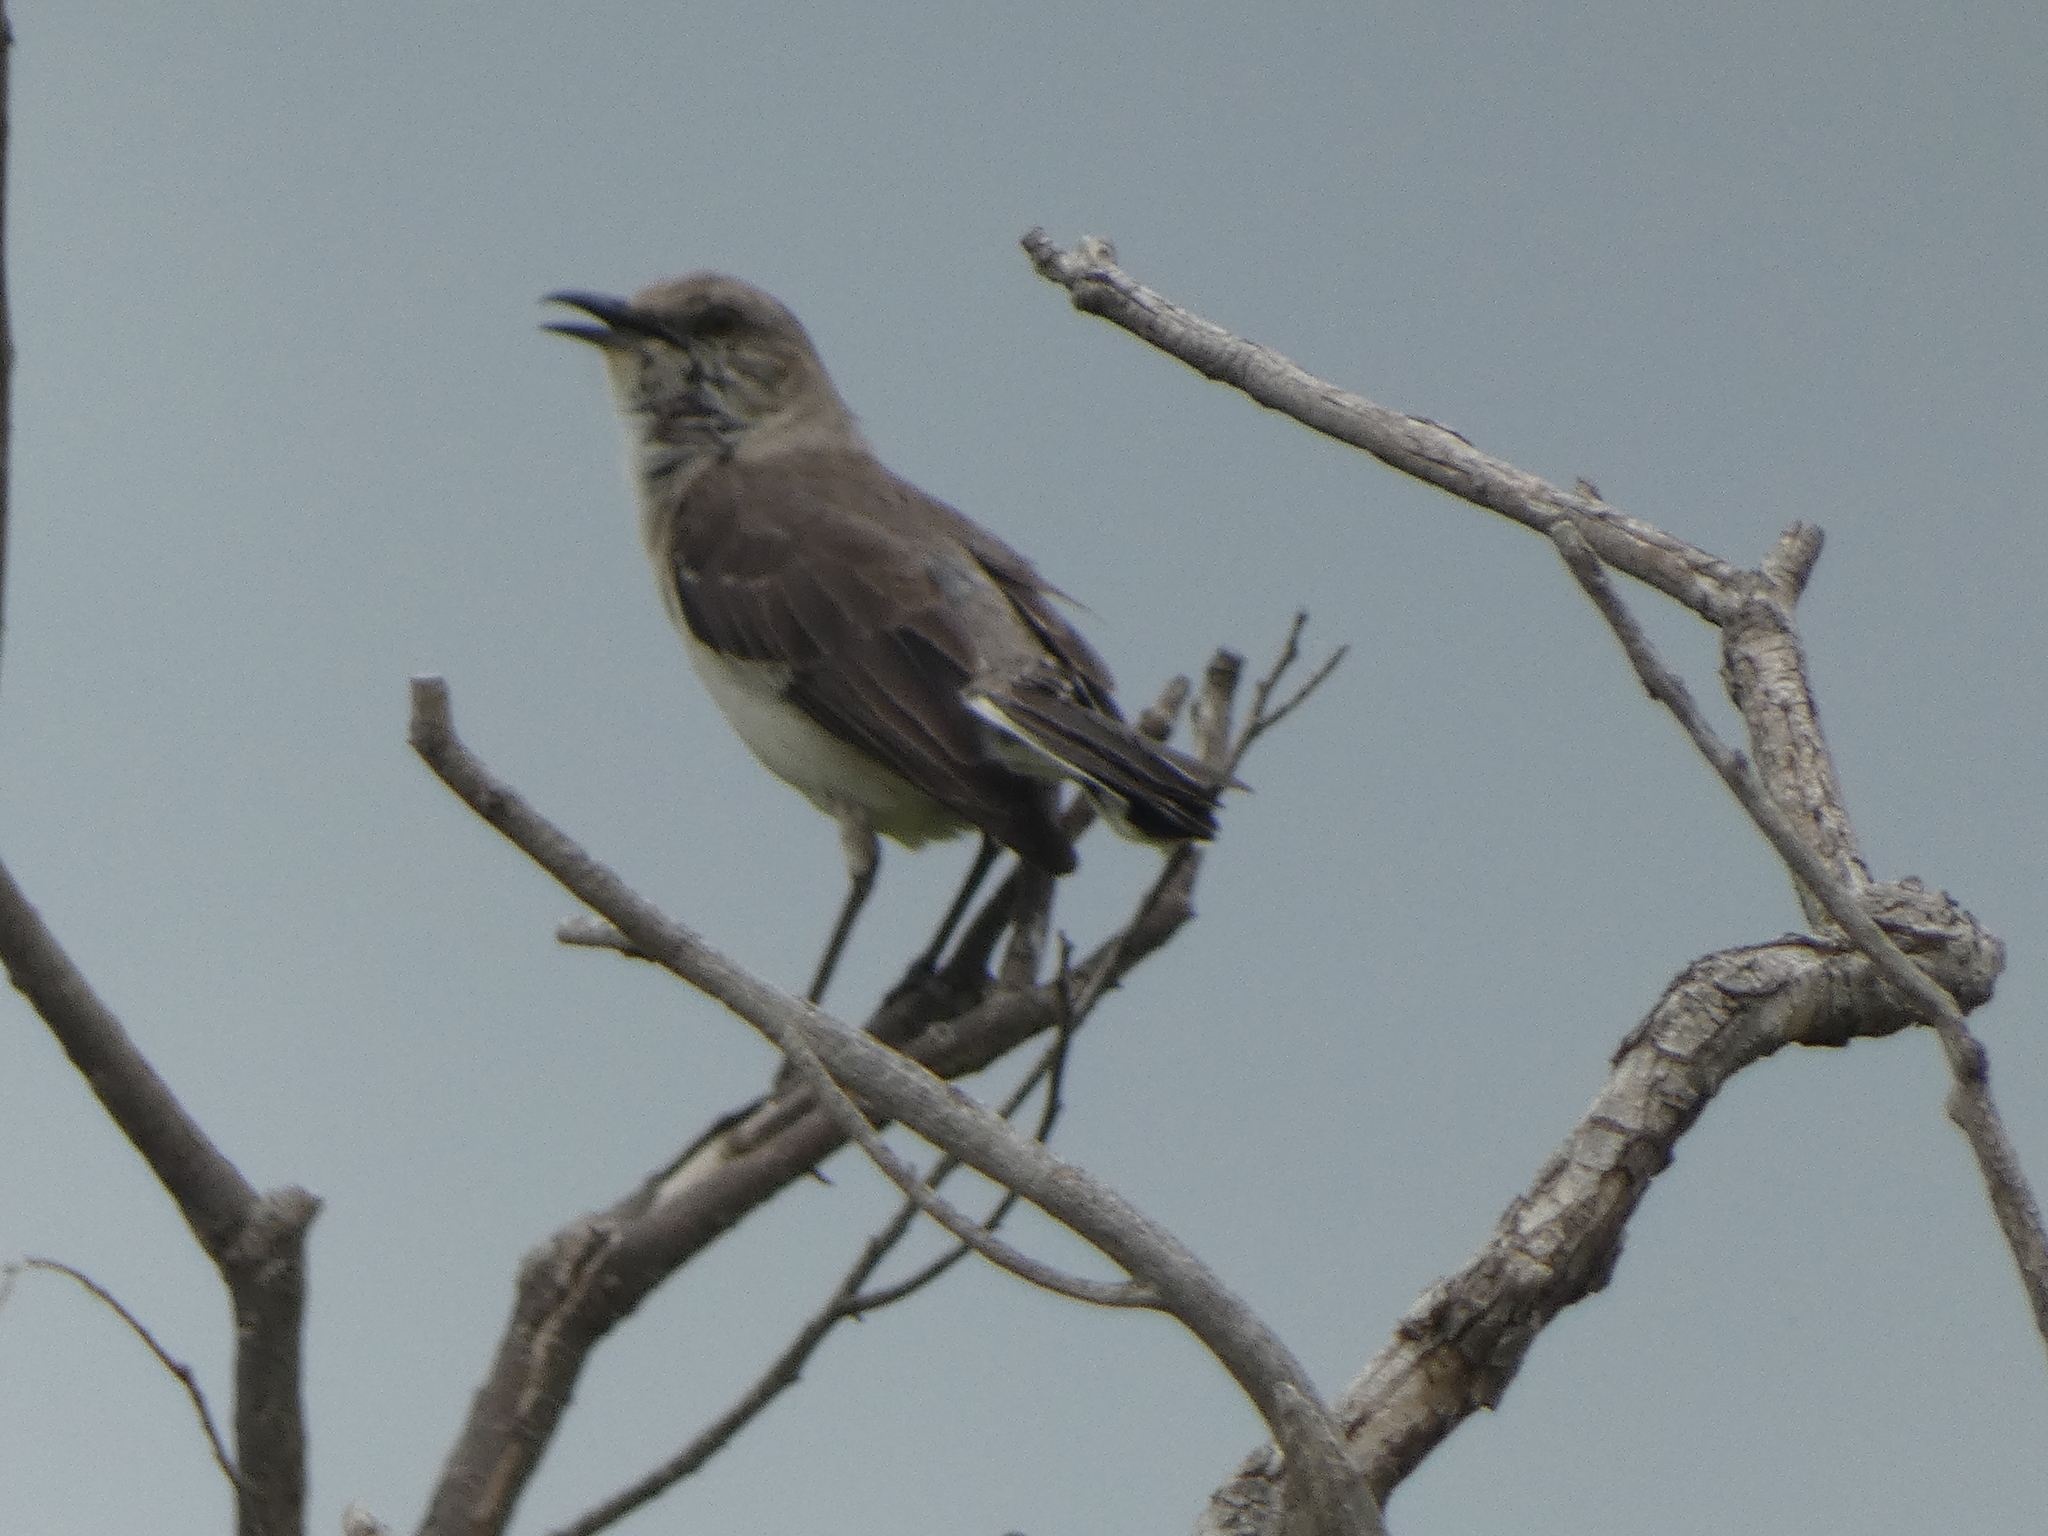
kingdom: Animalia
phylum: Chordata
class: Aves
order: Passeriformes
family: Mimidae
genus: Mimus
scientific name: Mimus polyglottos
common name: Northern mockingbird
